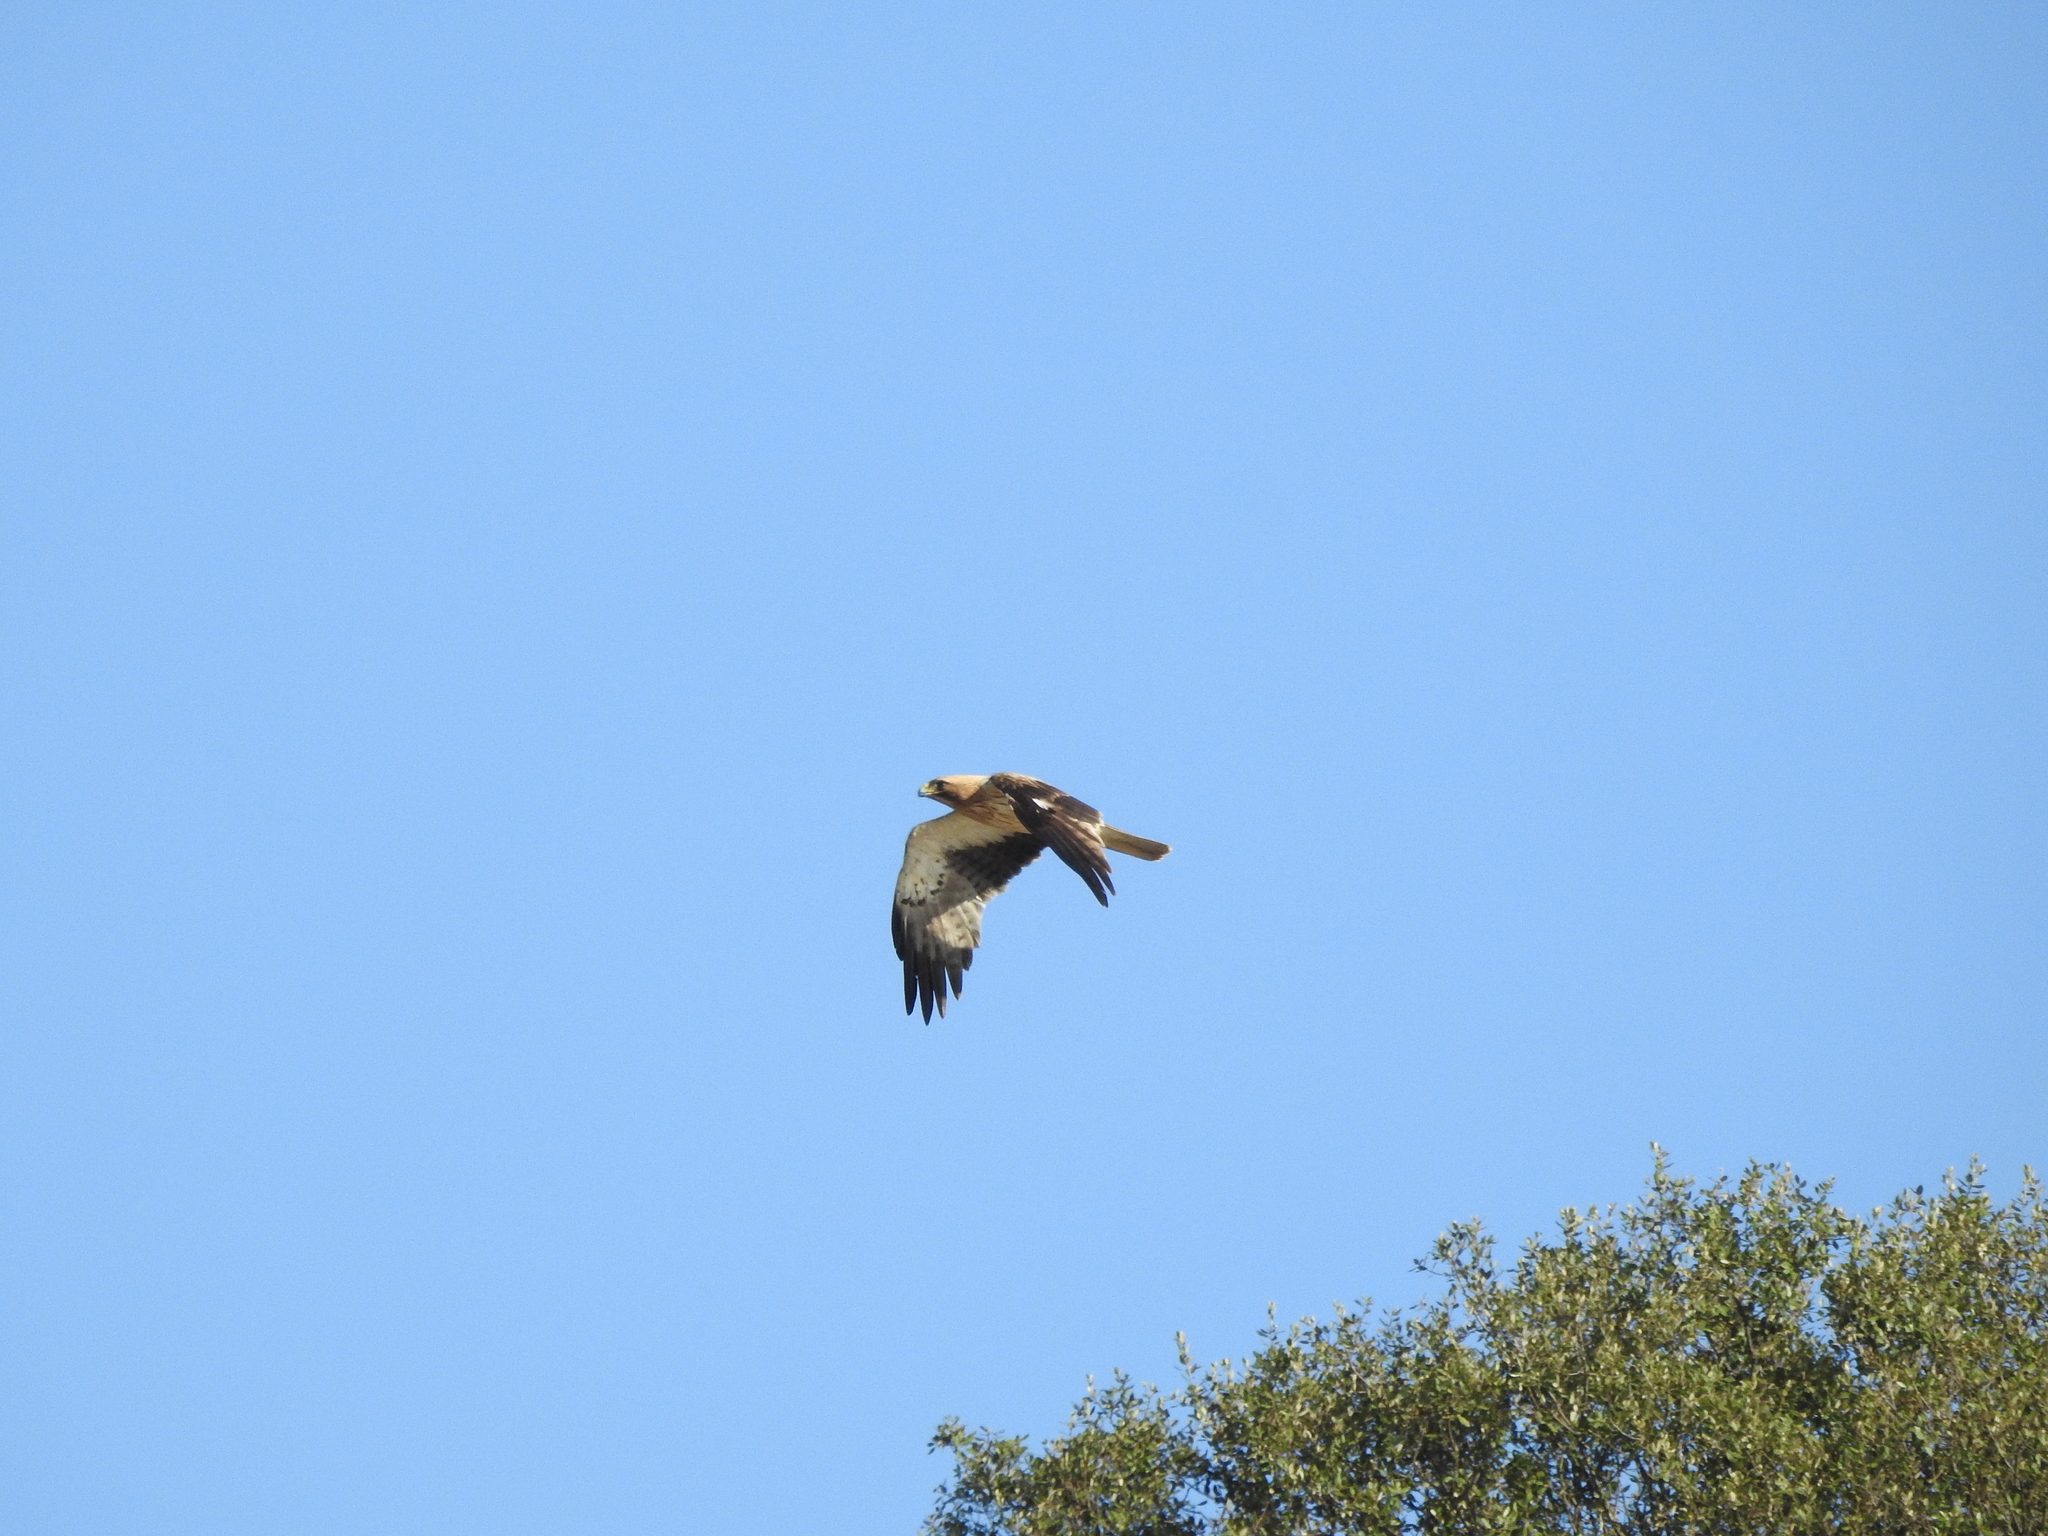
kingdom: Animalia
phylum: Chordata
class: Aves
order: Accipitriformes
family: Accipitridae
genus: Hieraaetus
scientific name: Hieraaetus pennatus
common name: Booted eagle
